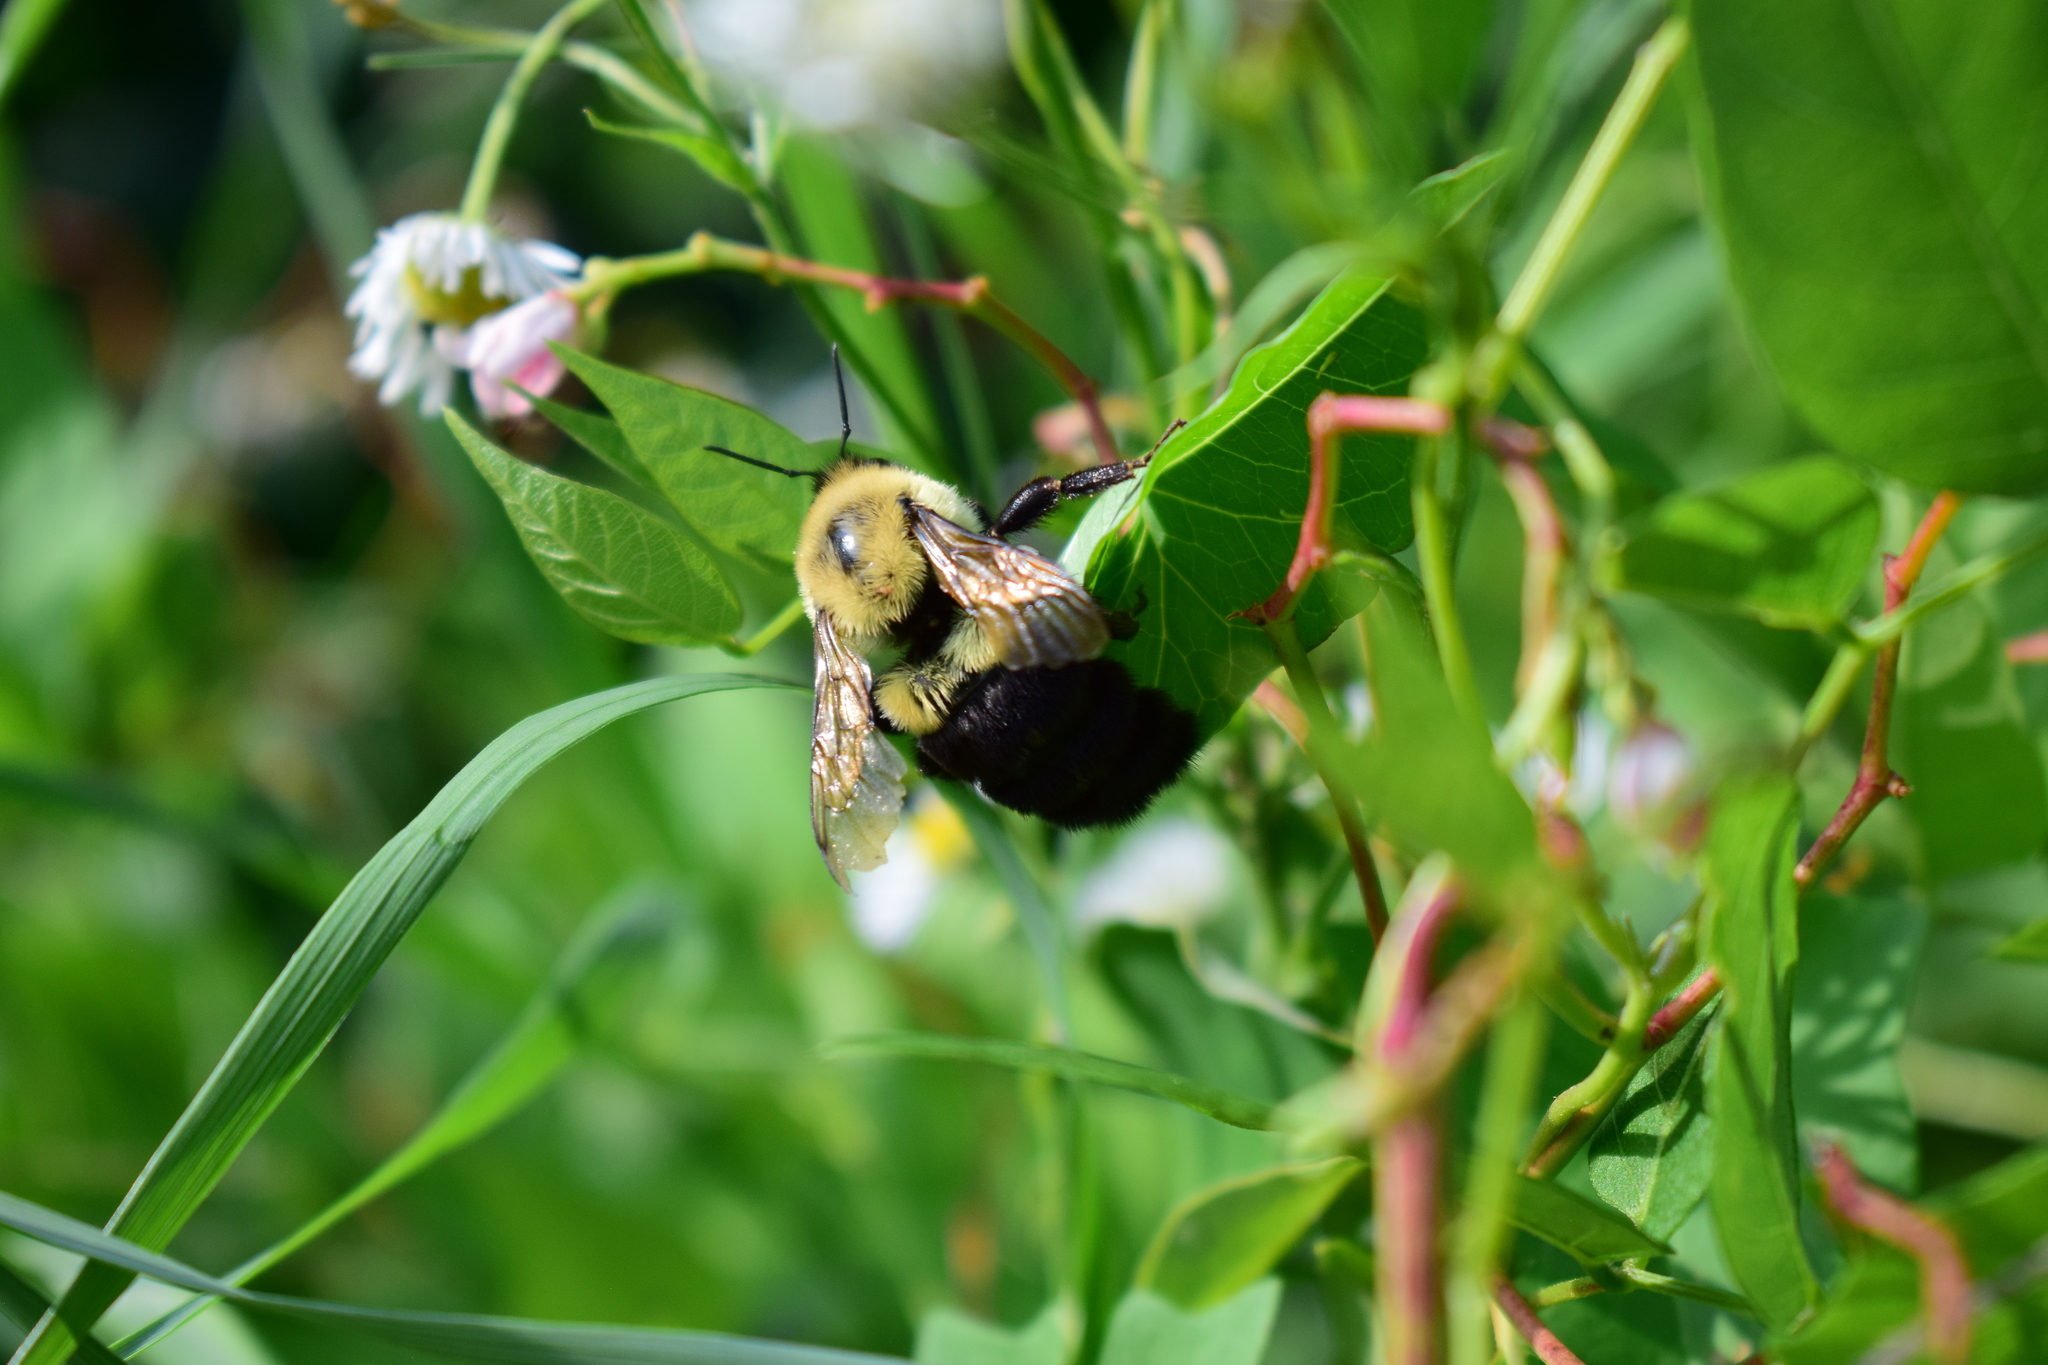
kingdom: Animalia
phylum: Arthropoda
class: Insecta
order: Hymenoptera
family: Apidae
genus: Bombus
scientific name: Bombus impatiens
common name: Common eastern bumble bee
